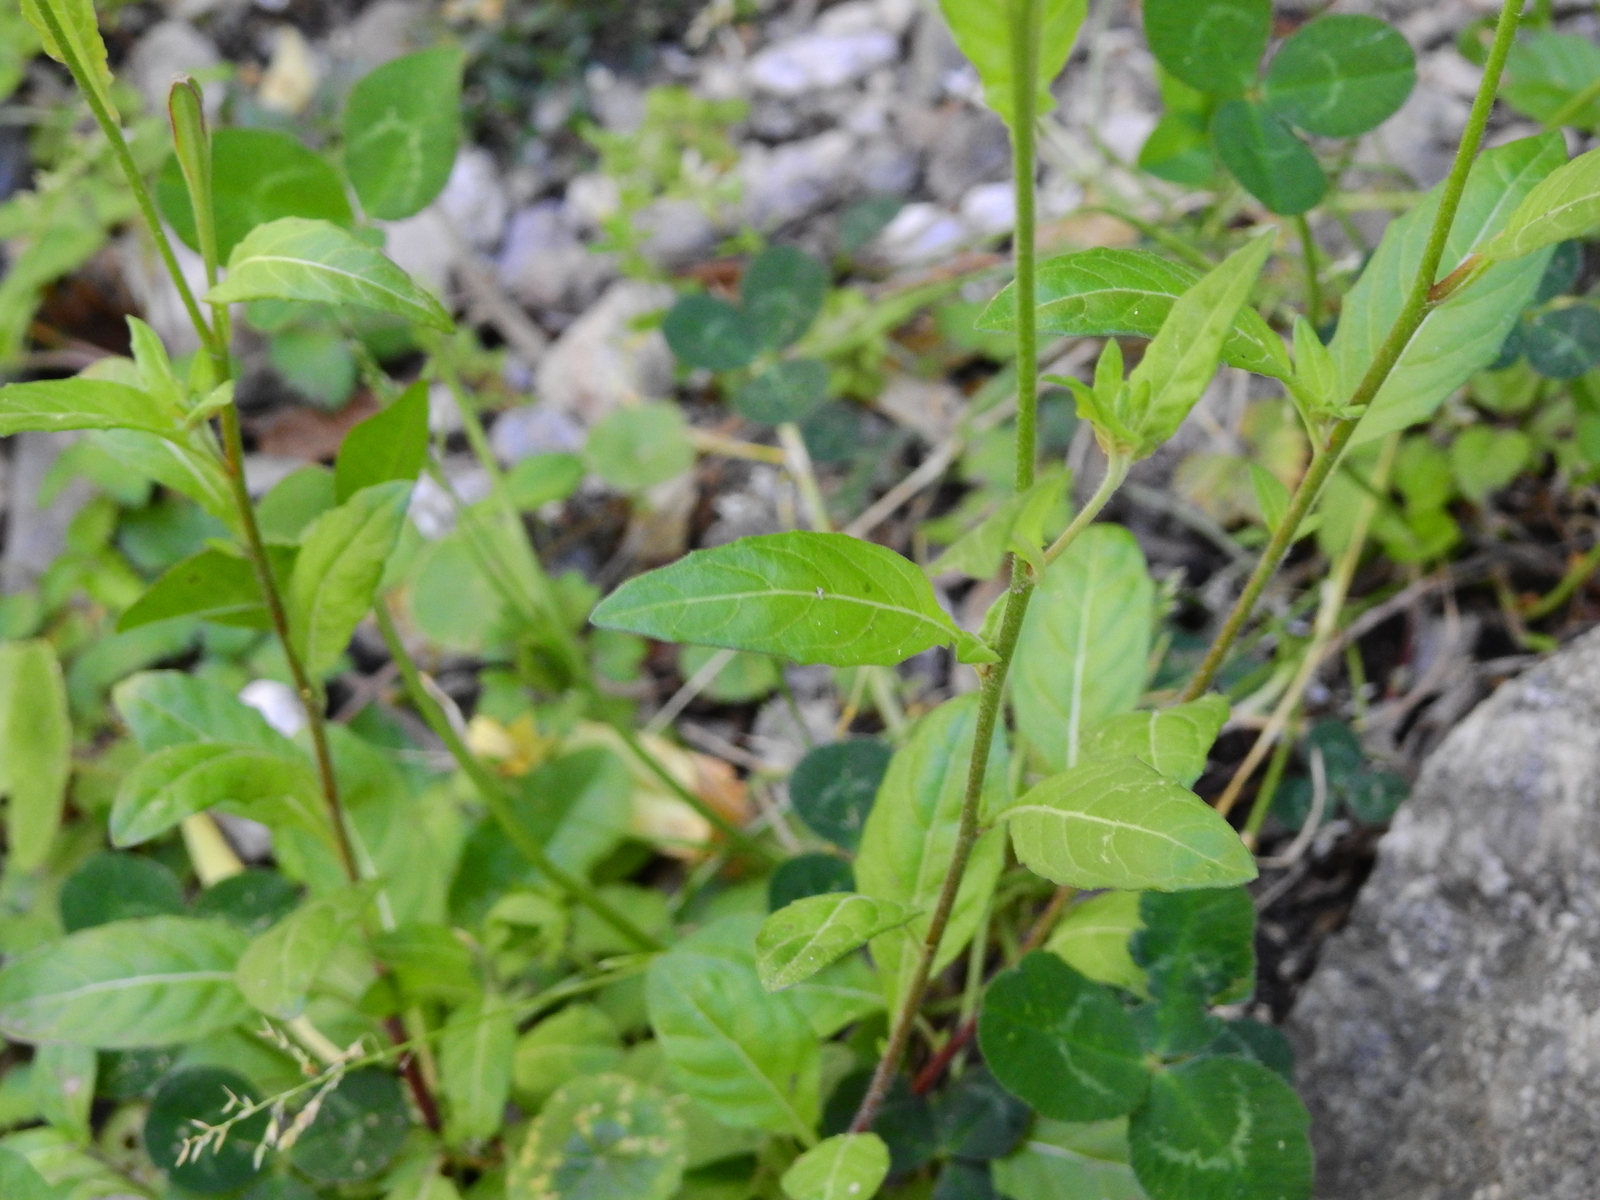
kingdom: Plantae
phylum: Tracheophyta
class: Magnoliopsida
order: Myrtales
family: Onagraceae
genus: Oenothera
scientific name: Oenothera rosea
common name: Rosy evening-primrose
